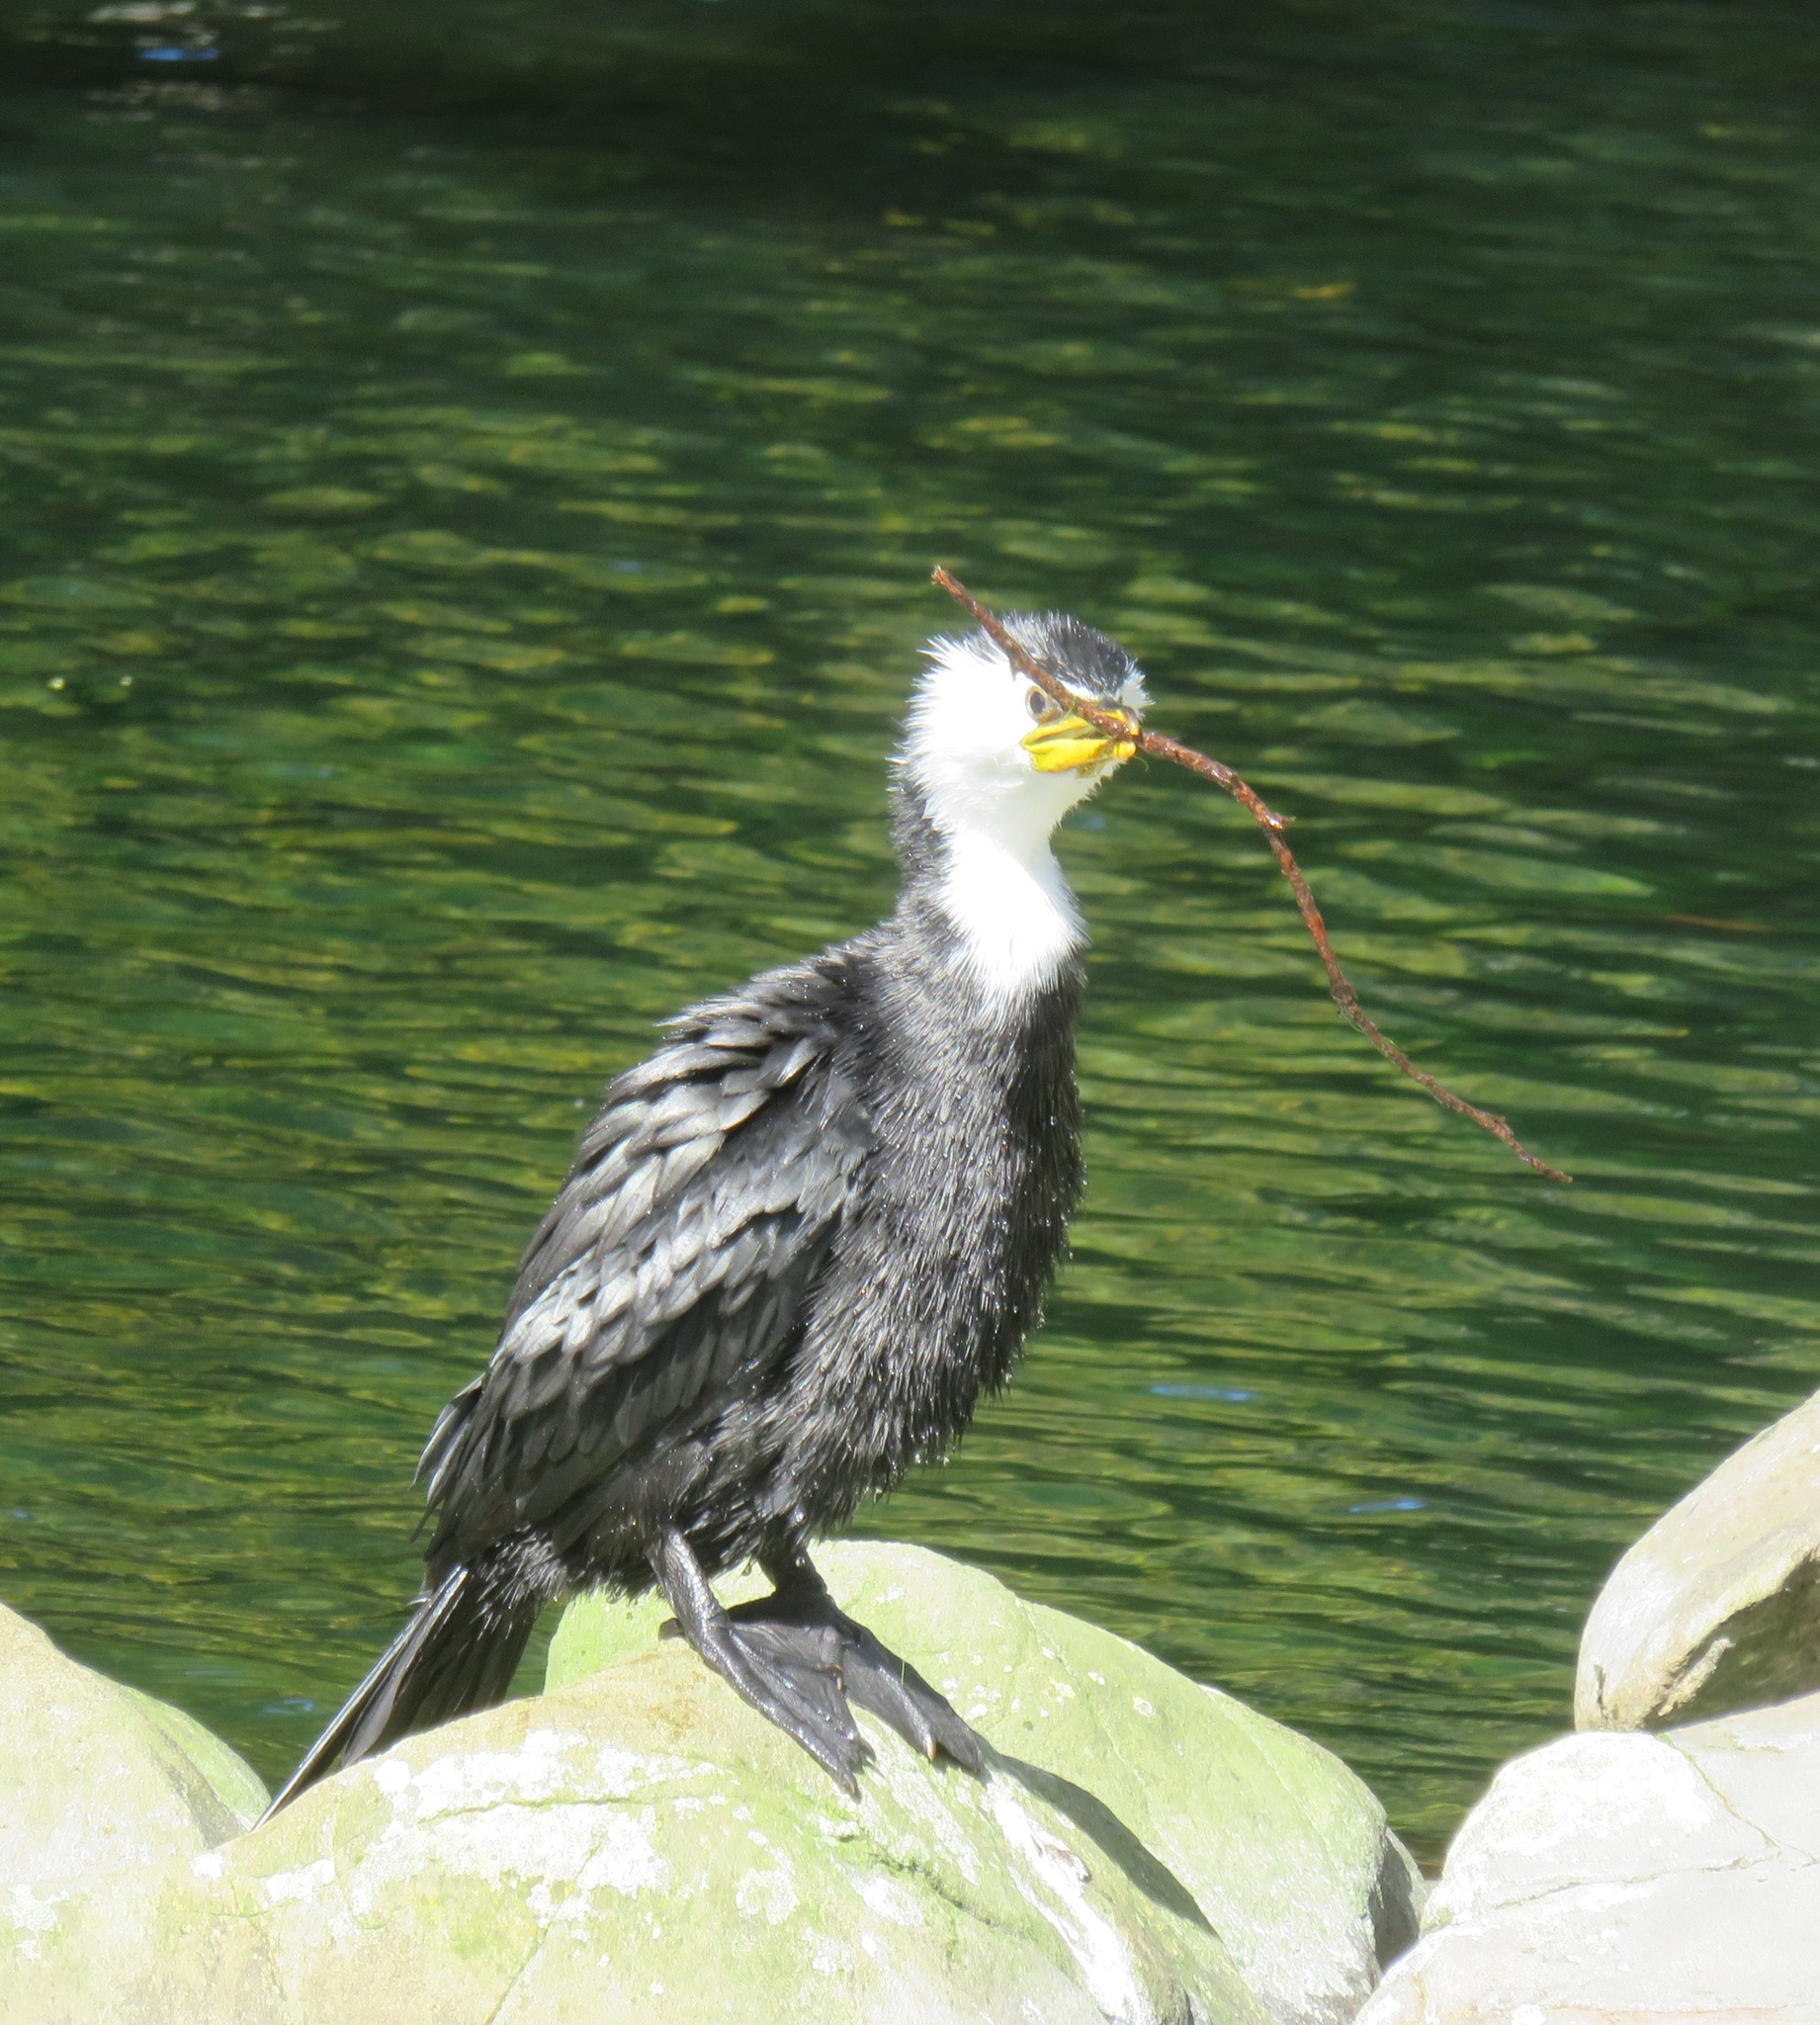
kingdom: Animalia
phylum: Chordata
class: Aves
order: Suliformes
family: Phalacrocoracidae
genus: Microcarbo
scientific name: Microcarbo melanoleucos
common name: Little pied cormorant
